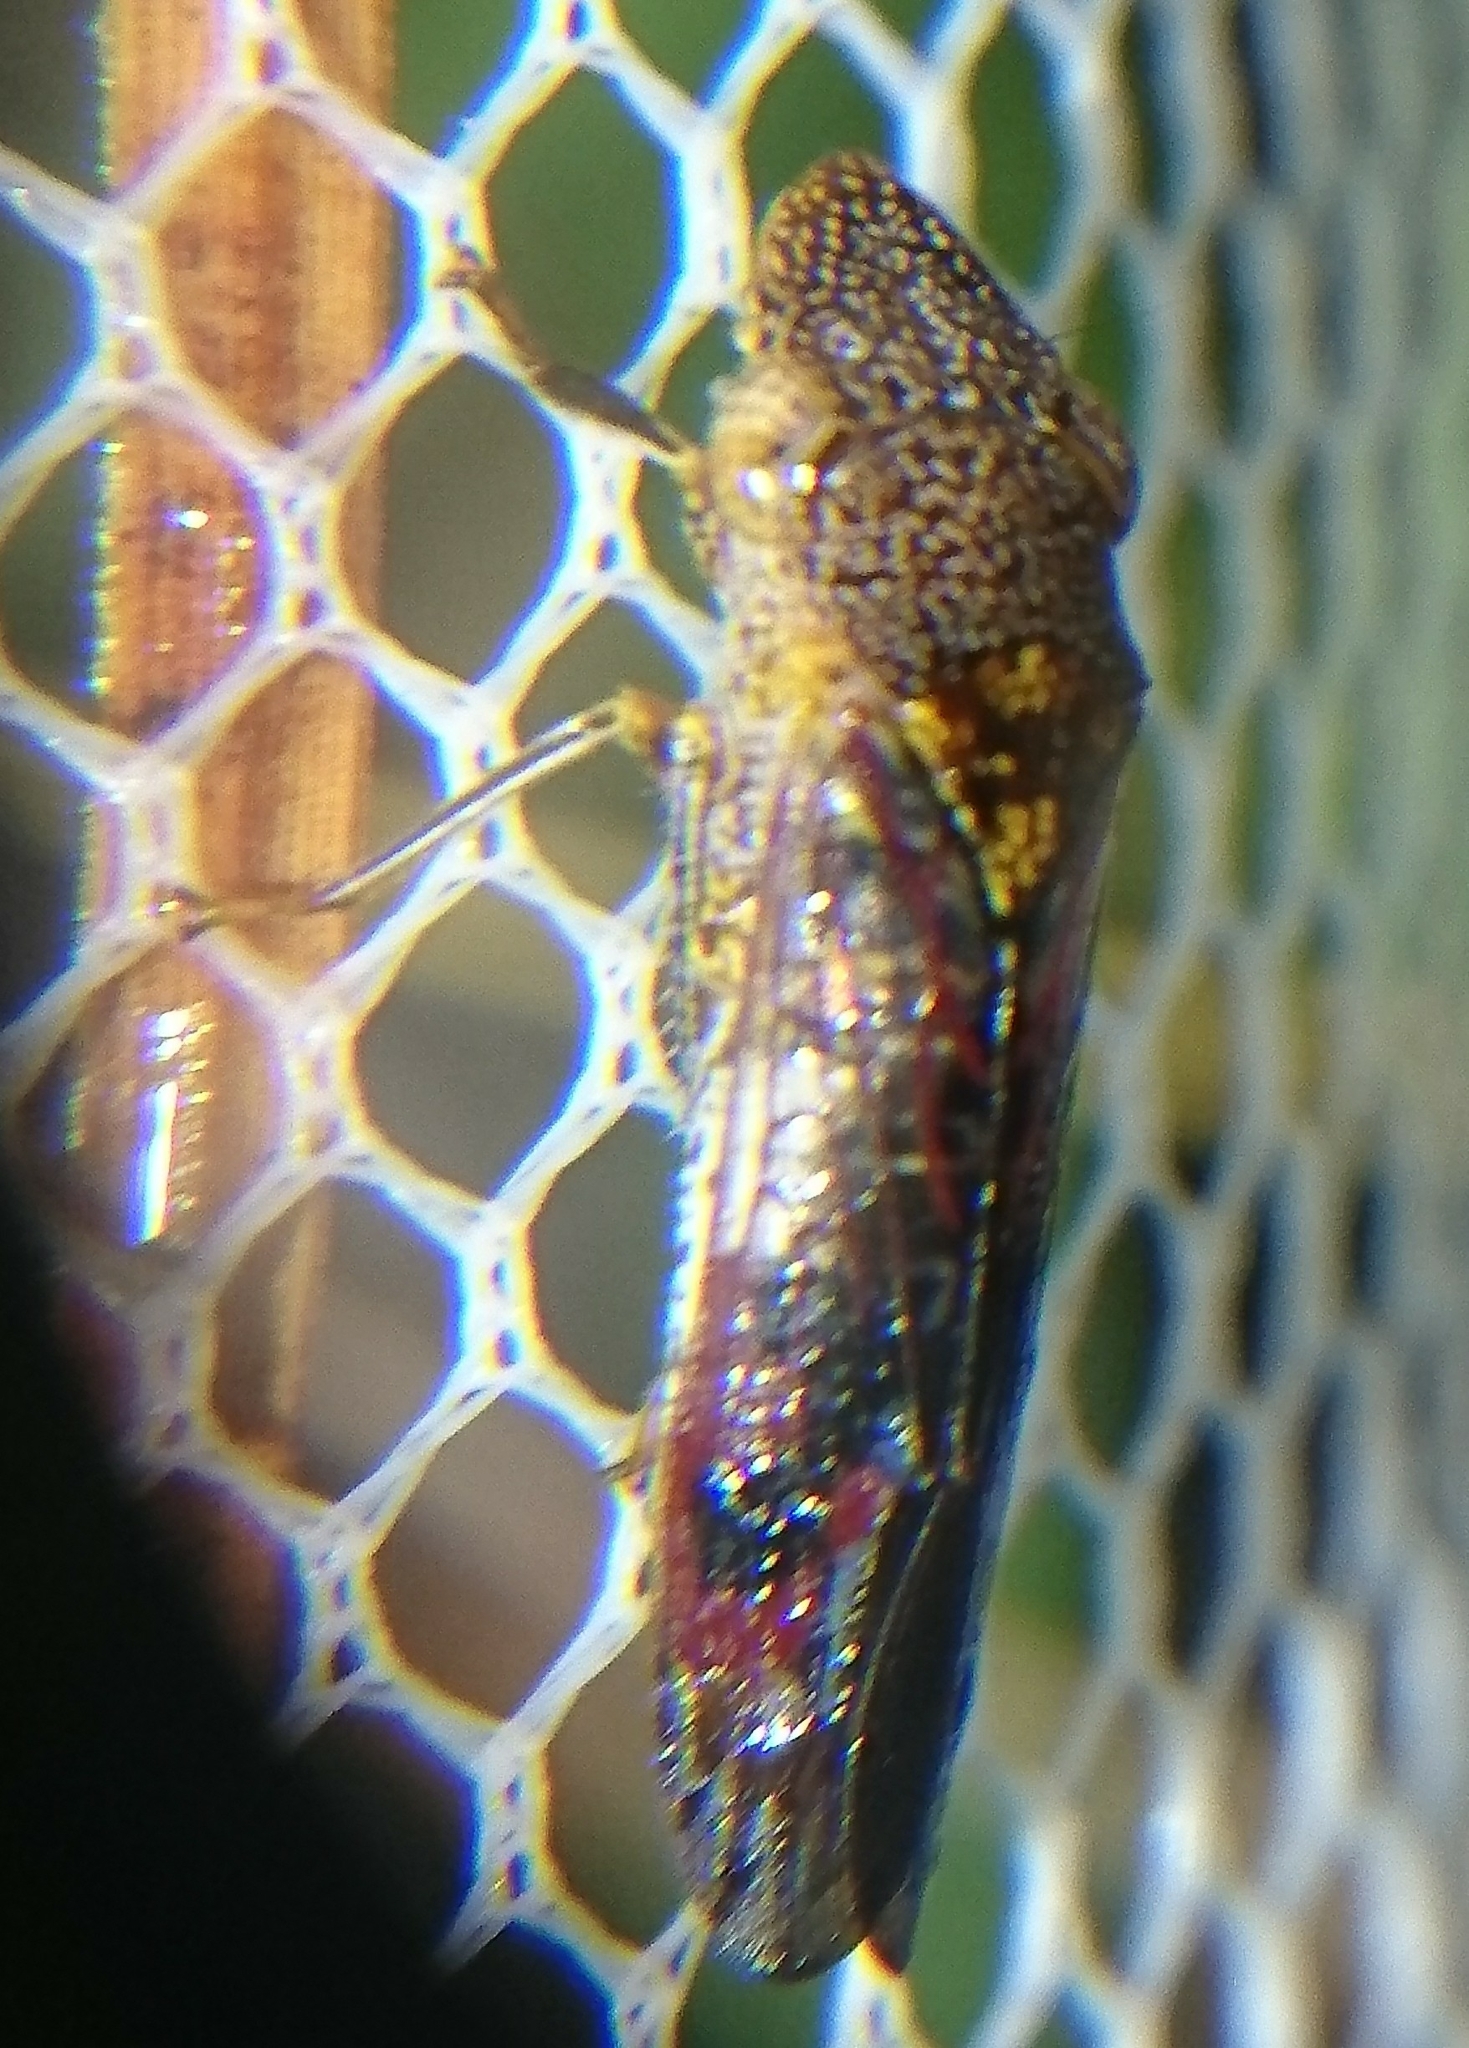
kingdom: Animalia
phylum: Arthropoda
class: Insecta
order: Hemiptera
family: Cicadellidae
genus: Homalodisca
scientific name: Homalodisca vitripennis
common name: Glassy-winged sharpshooter
